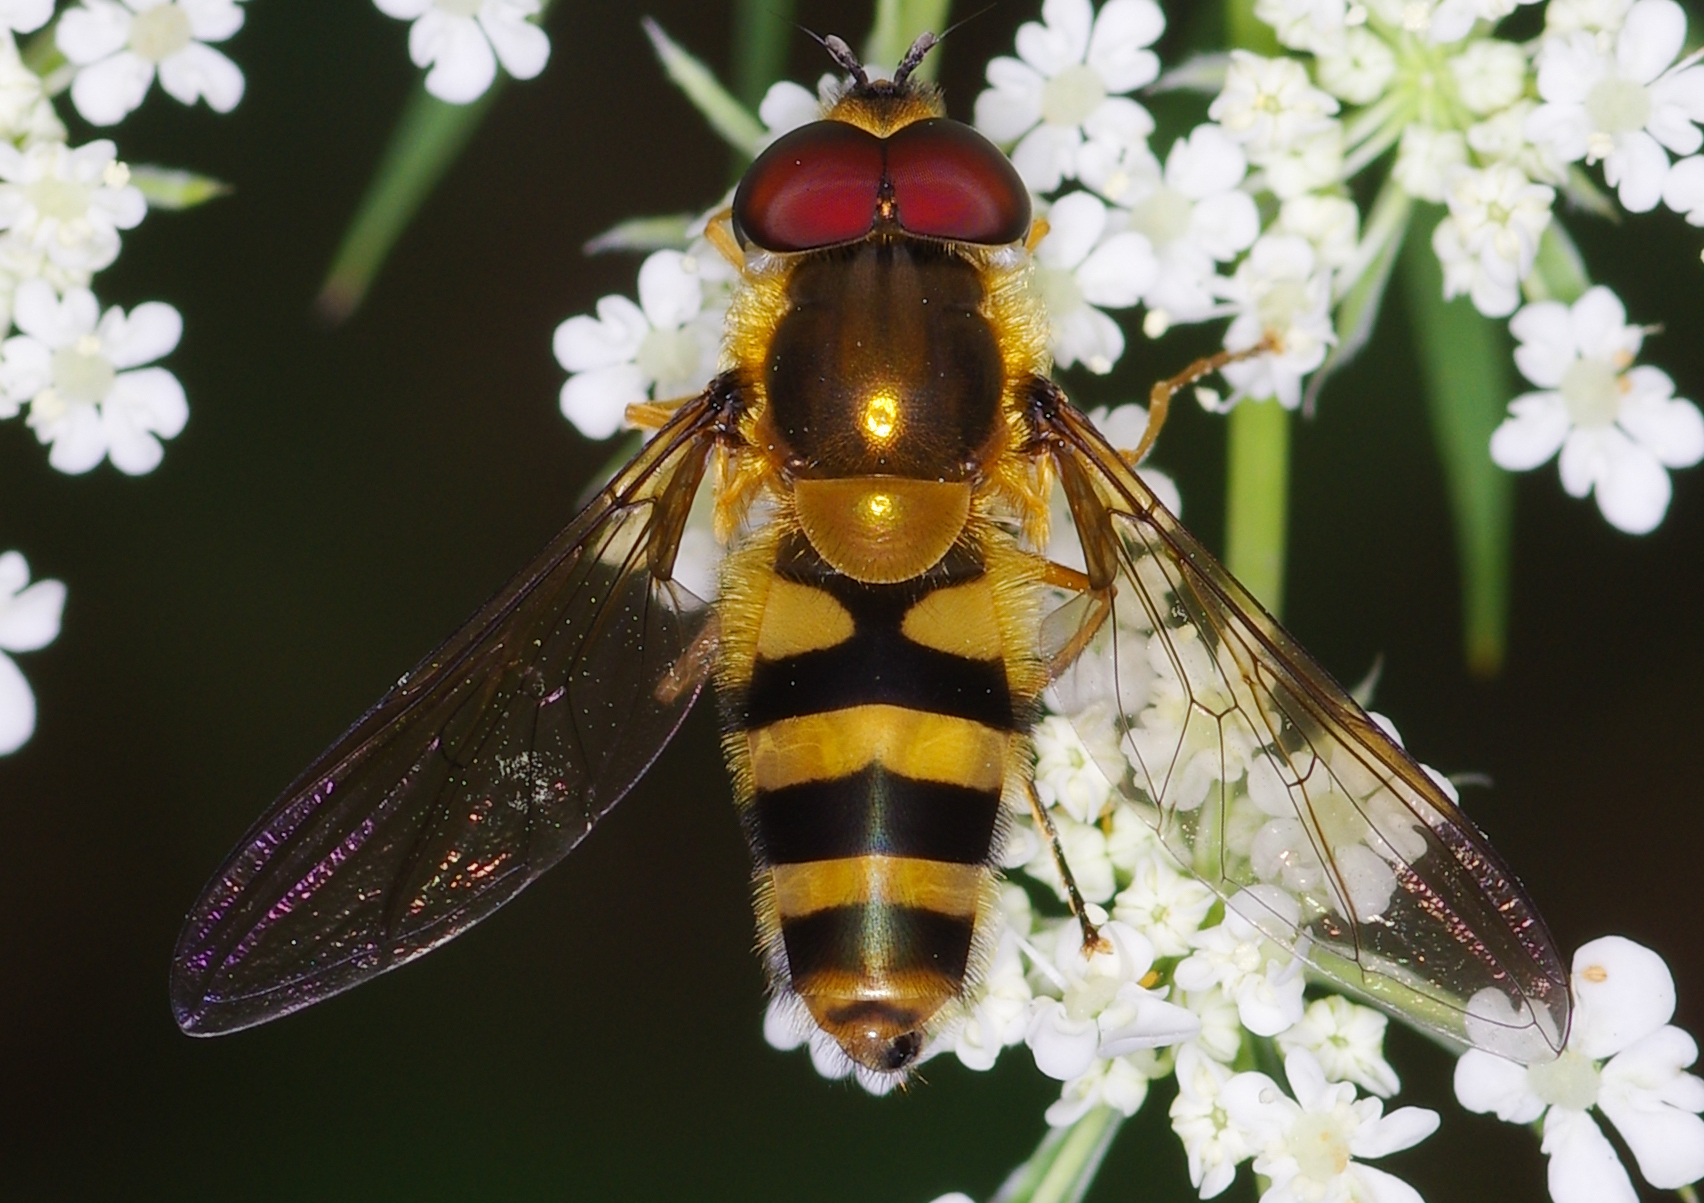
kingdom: Animalia
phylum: Arthropoda
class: Insecta
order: Diptera
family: Syrphidae
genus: Epistrophe
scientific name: Epistrophe grossulariae
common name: Black-horned smoothtail
